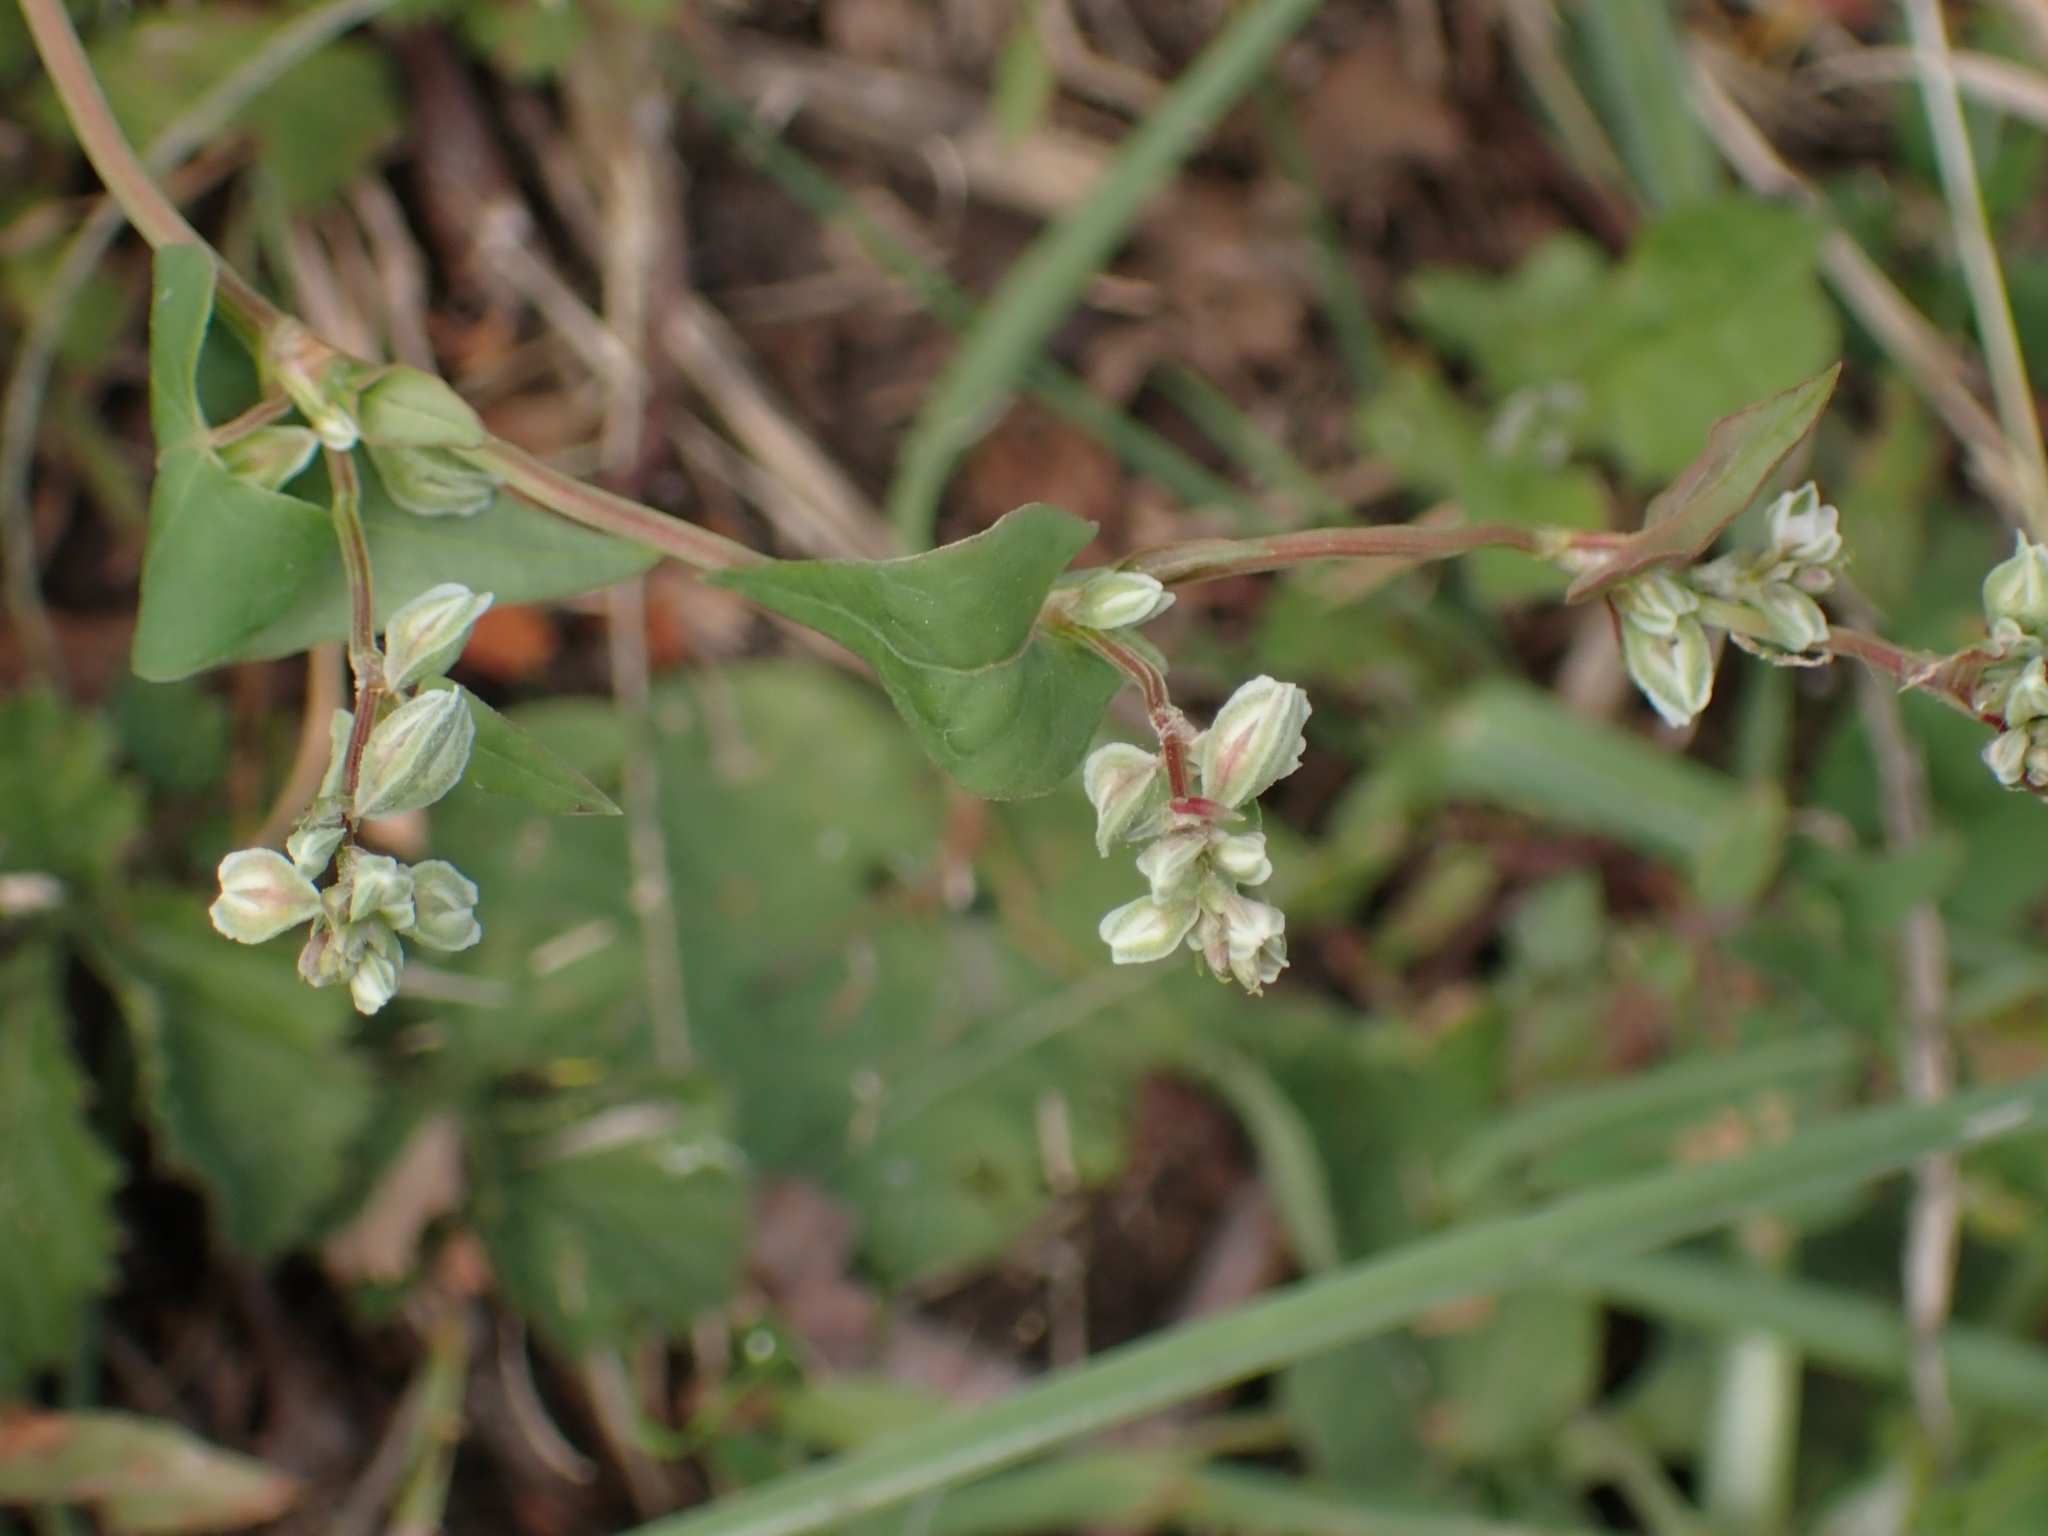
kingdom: Plantae
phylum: Tracheophyta
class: Magnoliopsida
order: Caryophyllales
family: Polygonaceae
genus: Fallopia
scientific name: Fallopia convolvulus
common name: Black bindweed
